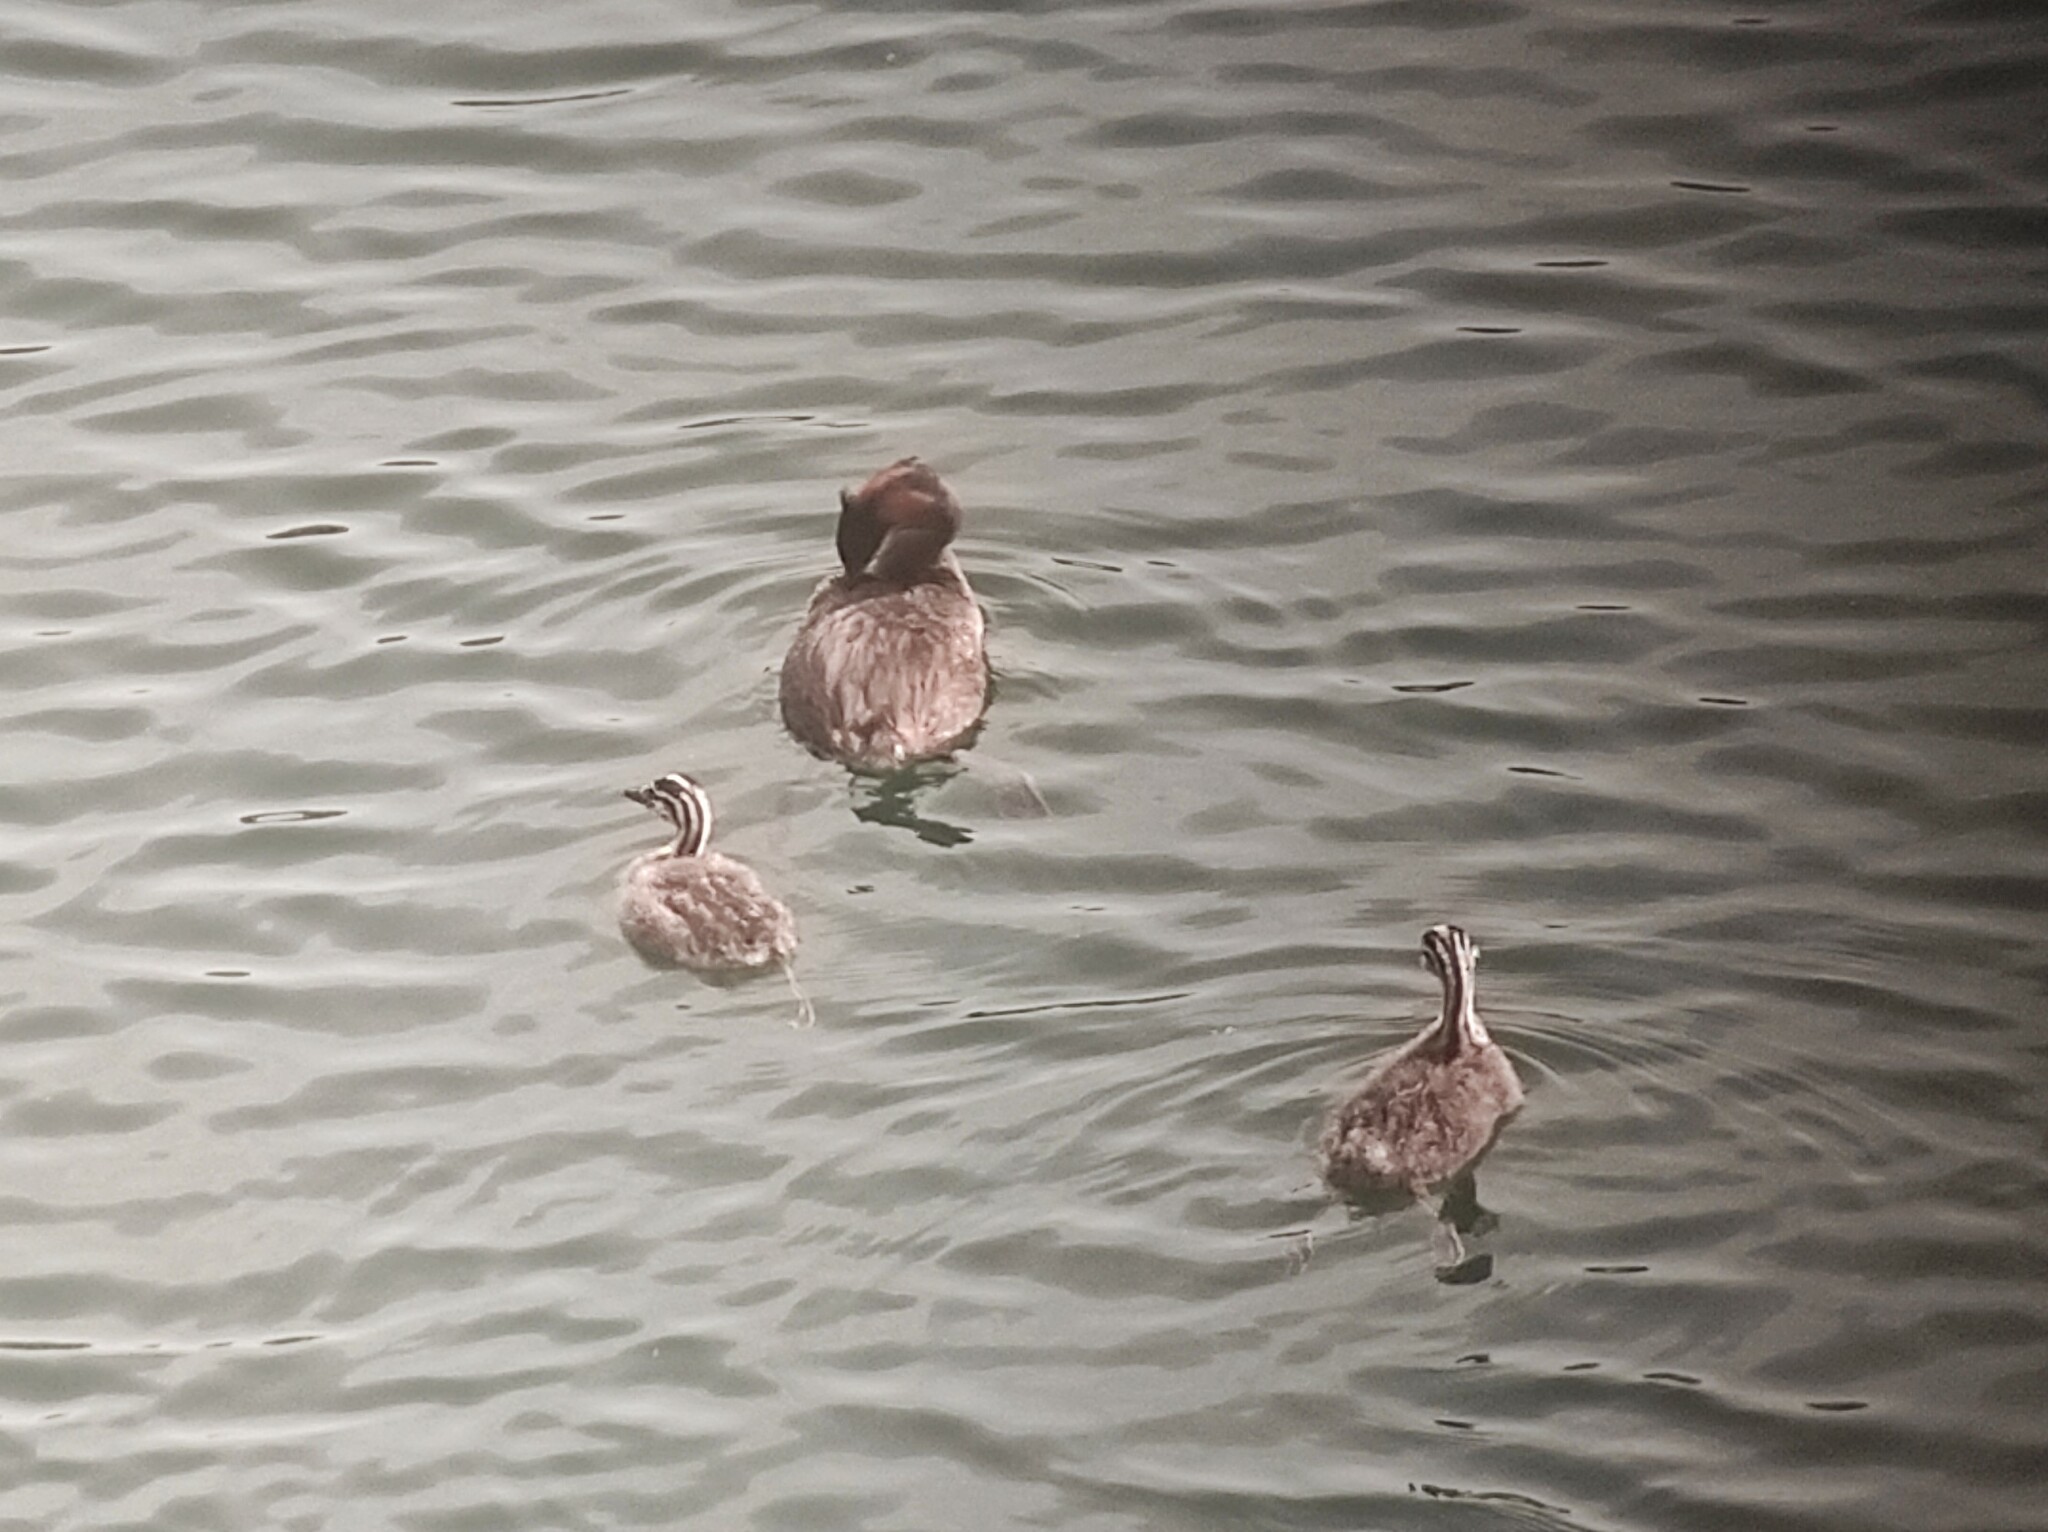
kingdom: Animalia
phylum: Chordata
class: Aves
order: Podicipediformes
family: Podicipedidae
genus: Podiceps
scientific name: Podiceps cristatus
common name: Great crested grebe
